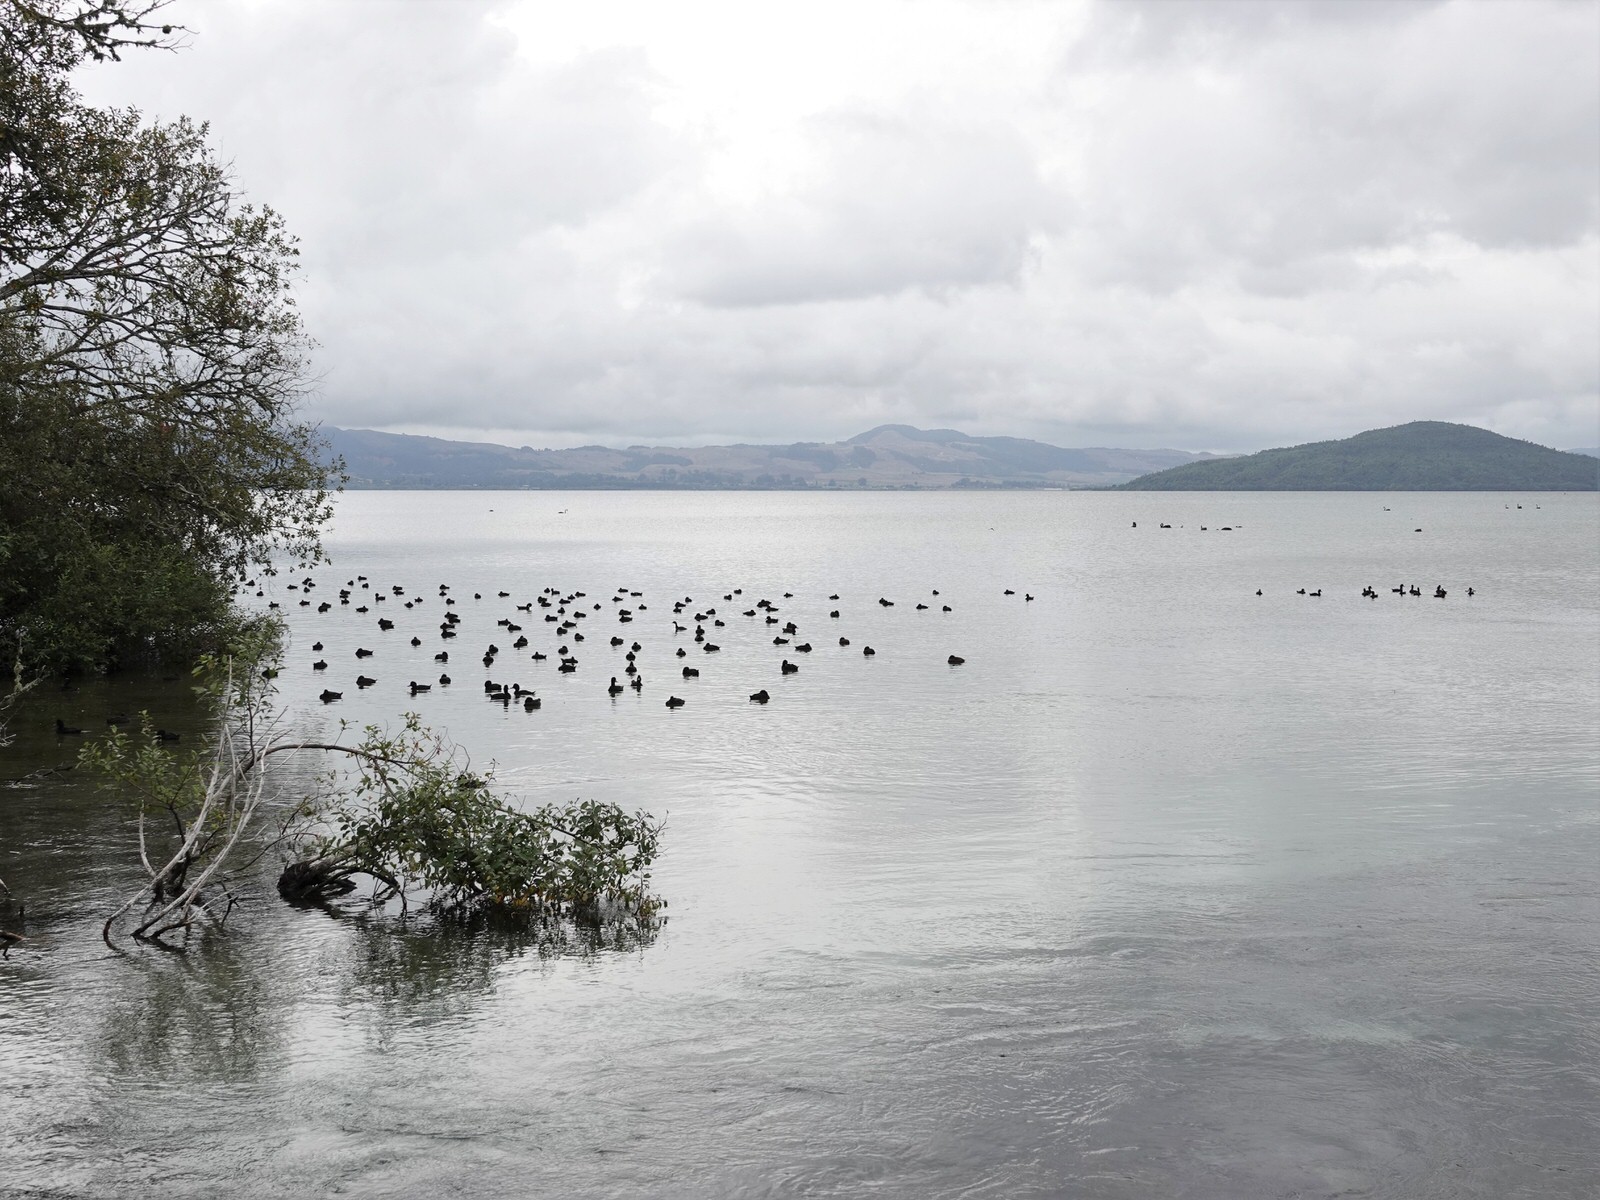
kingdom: Animalia
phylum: Chordata
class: Aves
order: Anseriformes
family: Anatidae
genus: Aythya
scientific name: Aythya novaeseelandiae
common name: New zealand scaup
